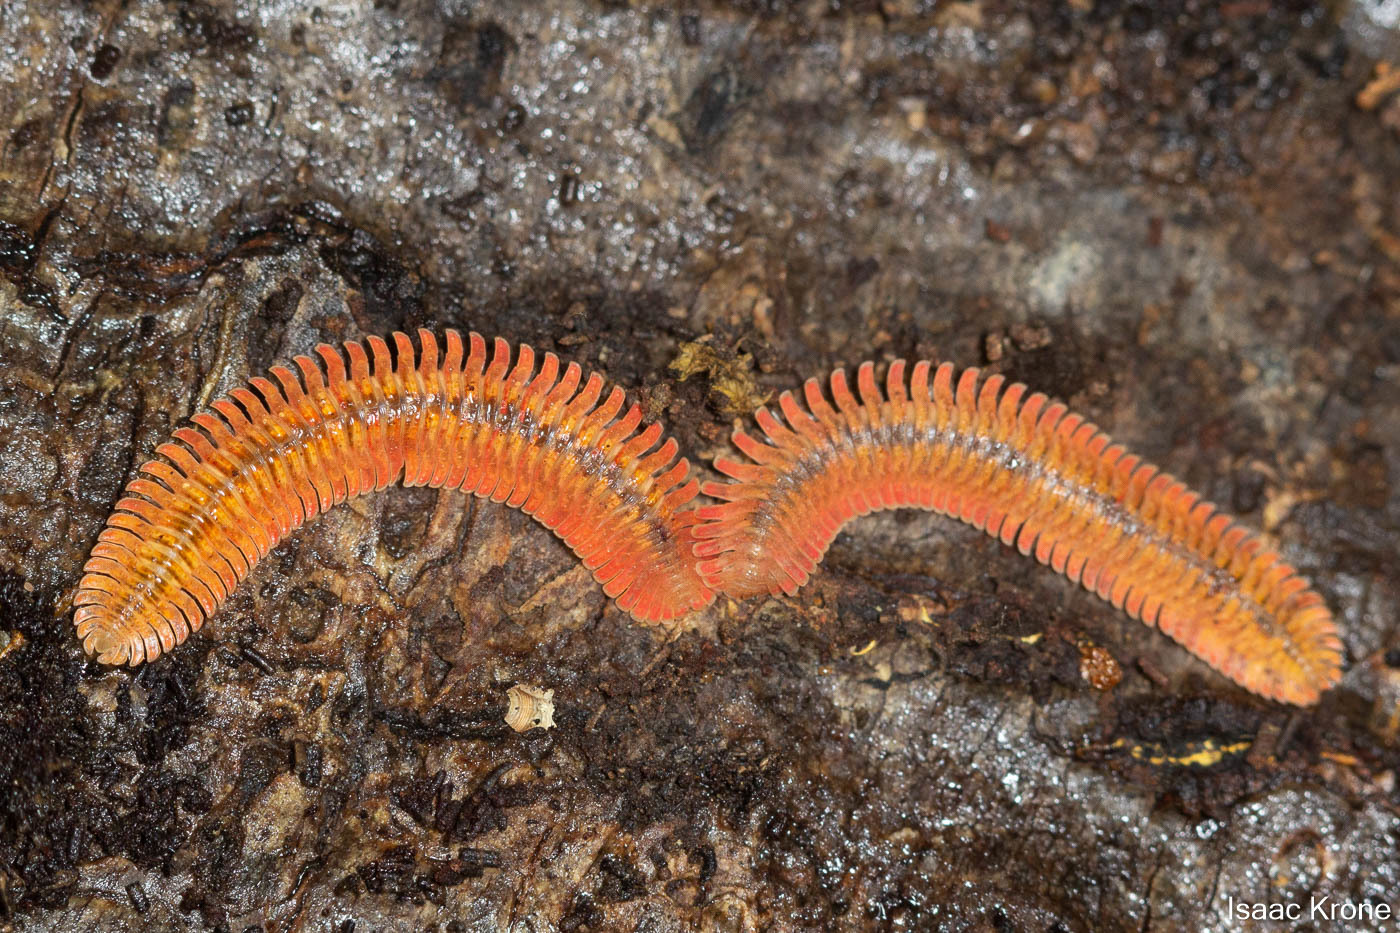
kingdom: Animalia
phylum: Arthropoda
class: Diplopoda
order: Platydesmida
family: Andrognathidae
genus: Brachycybe
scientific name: Brachycybe picta
